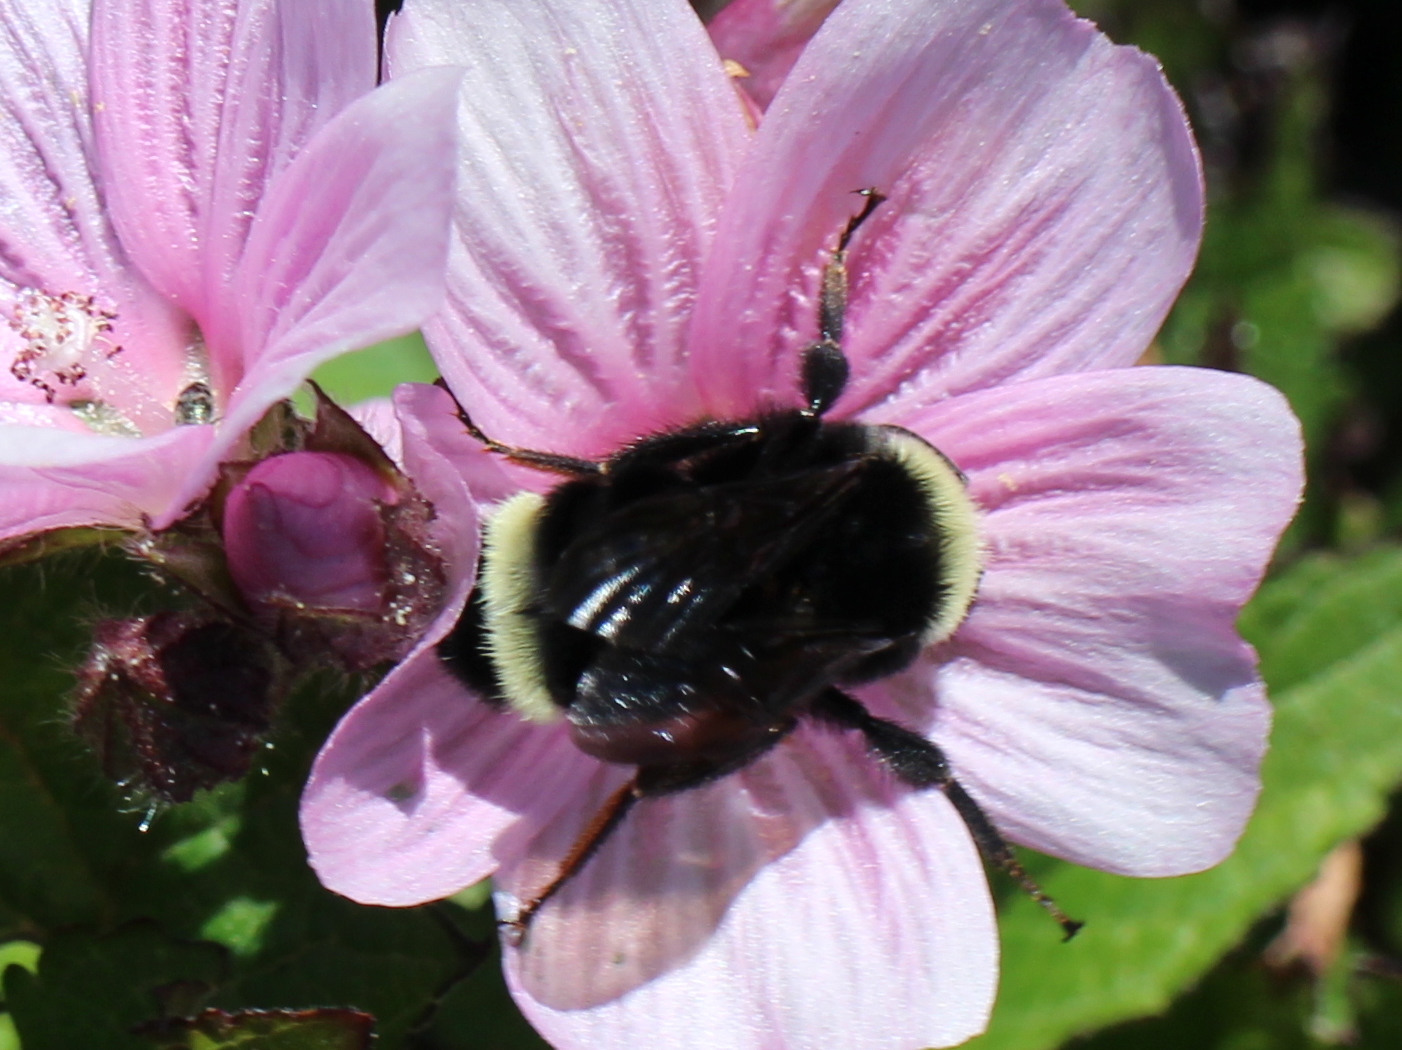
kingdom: Animalia
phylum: Arthropoda
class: Insecta
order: Hymenoptera
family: Apidae
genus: Bombus
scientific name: Bombus
